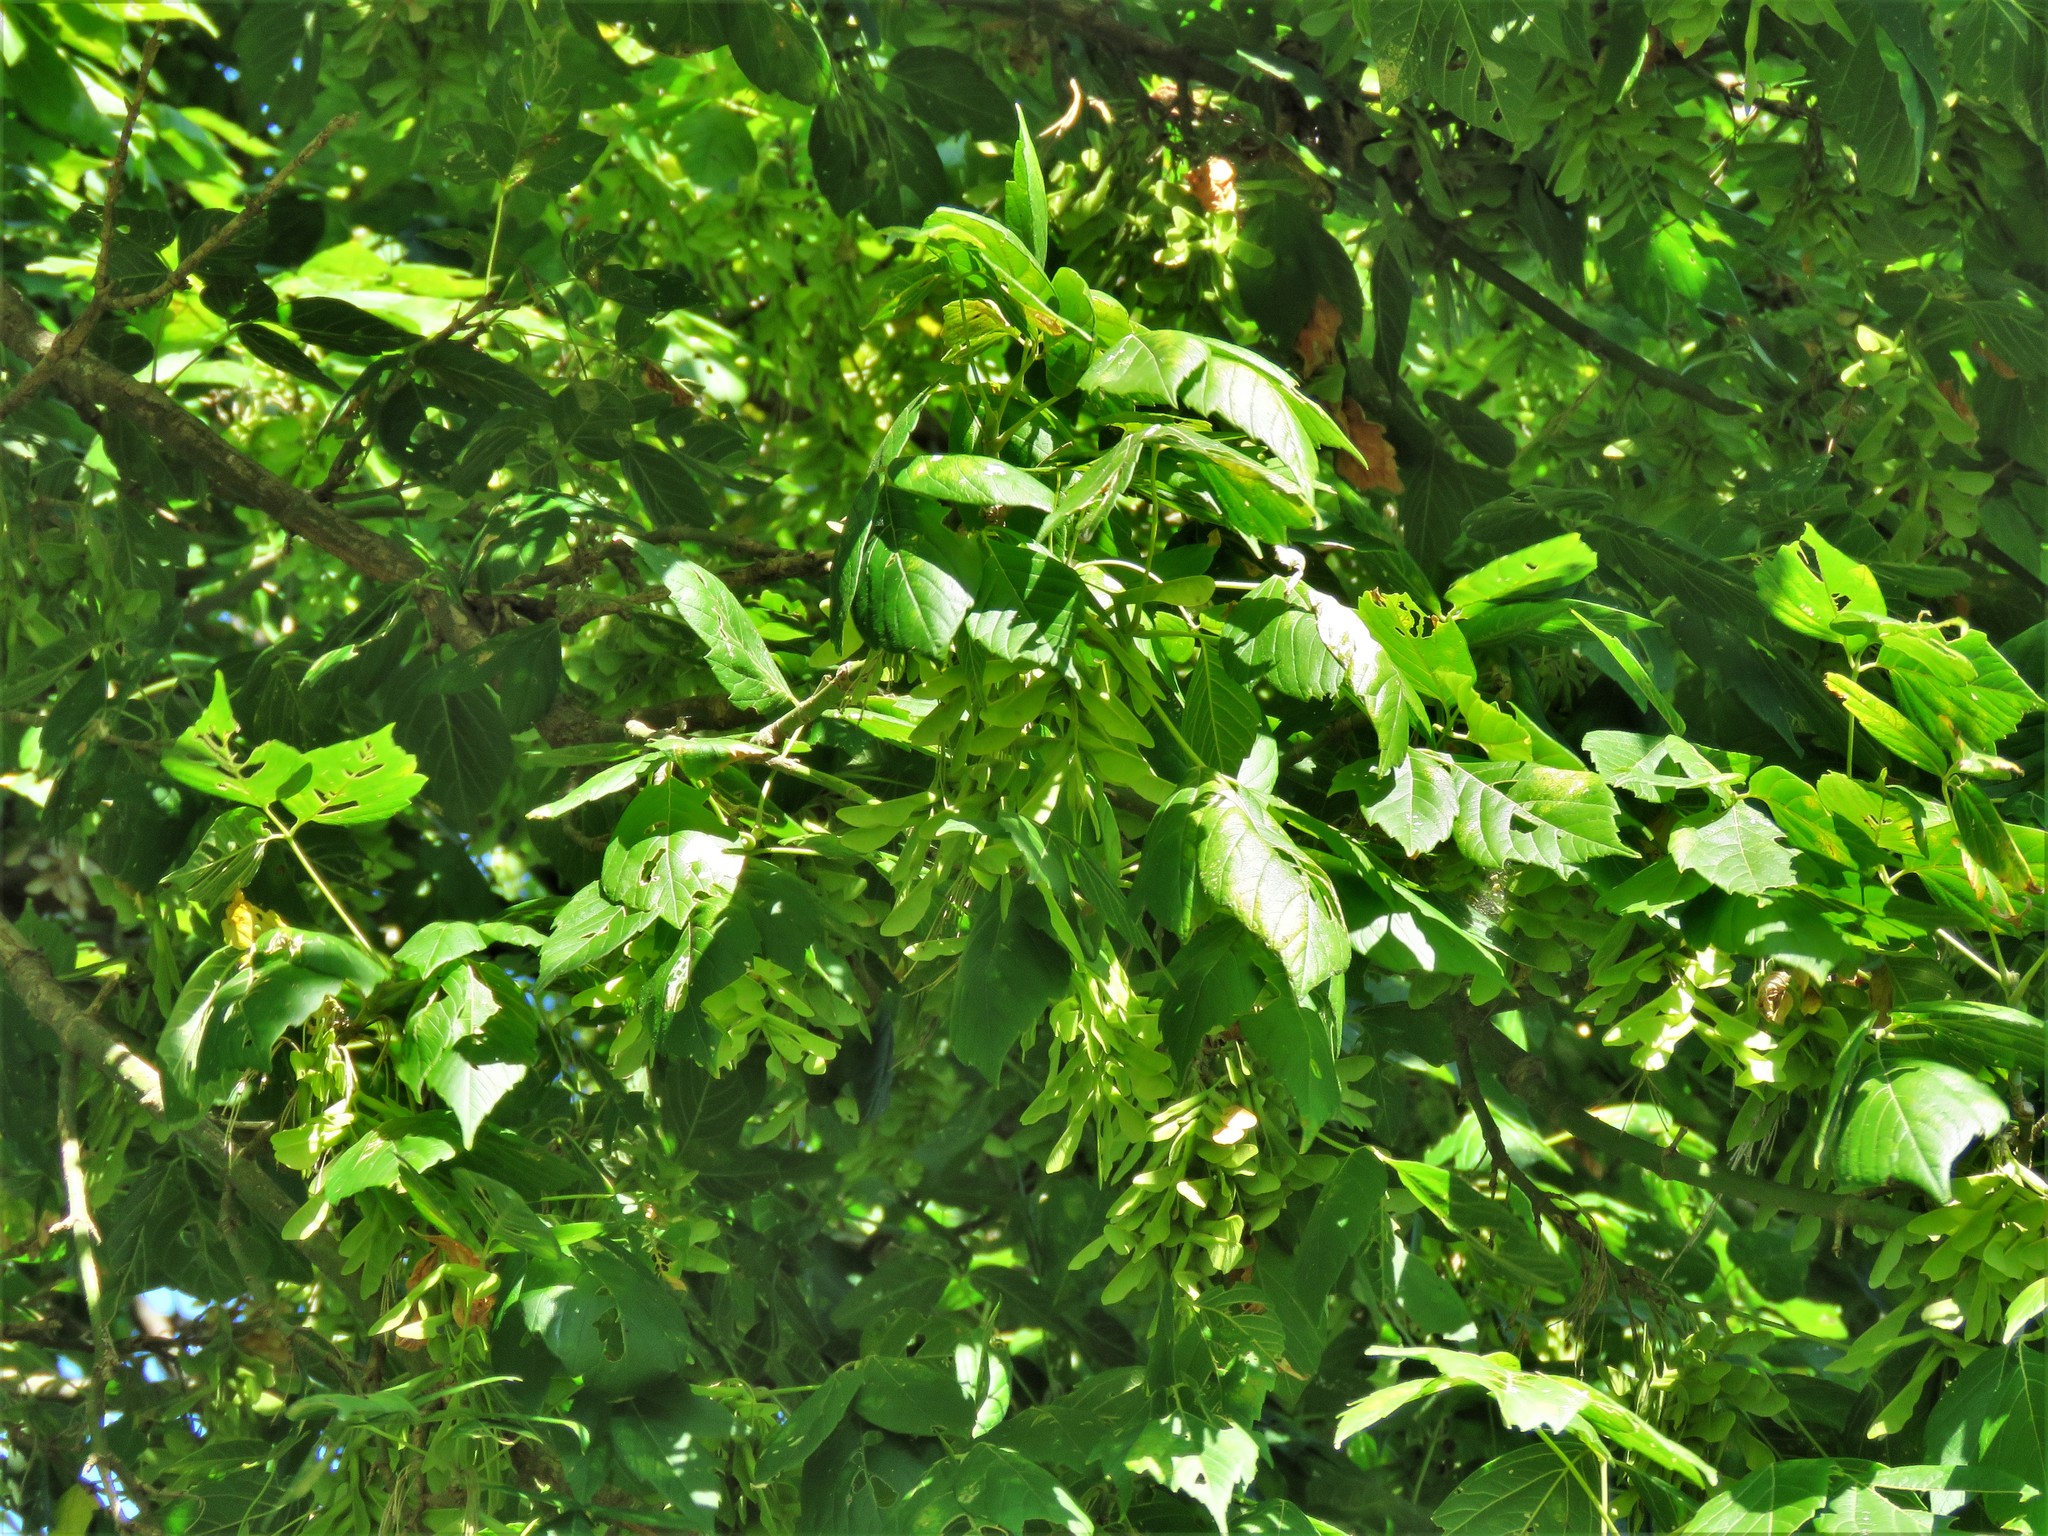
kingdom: Plantae
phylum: Tracheophyta
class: Magnoliopsida
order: Sapindales
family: Sapindaceae
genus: Acer
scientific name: Acer negundo
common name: Ashleaf maple
